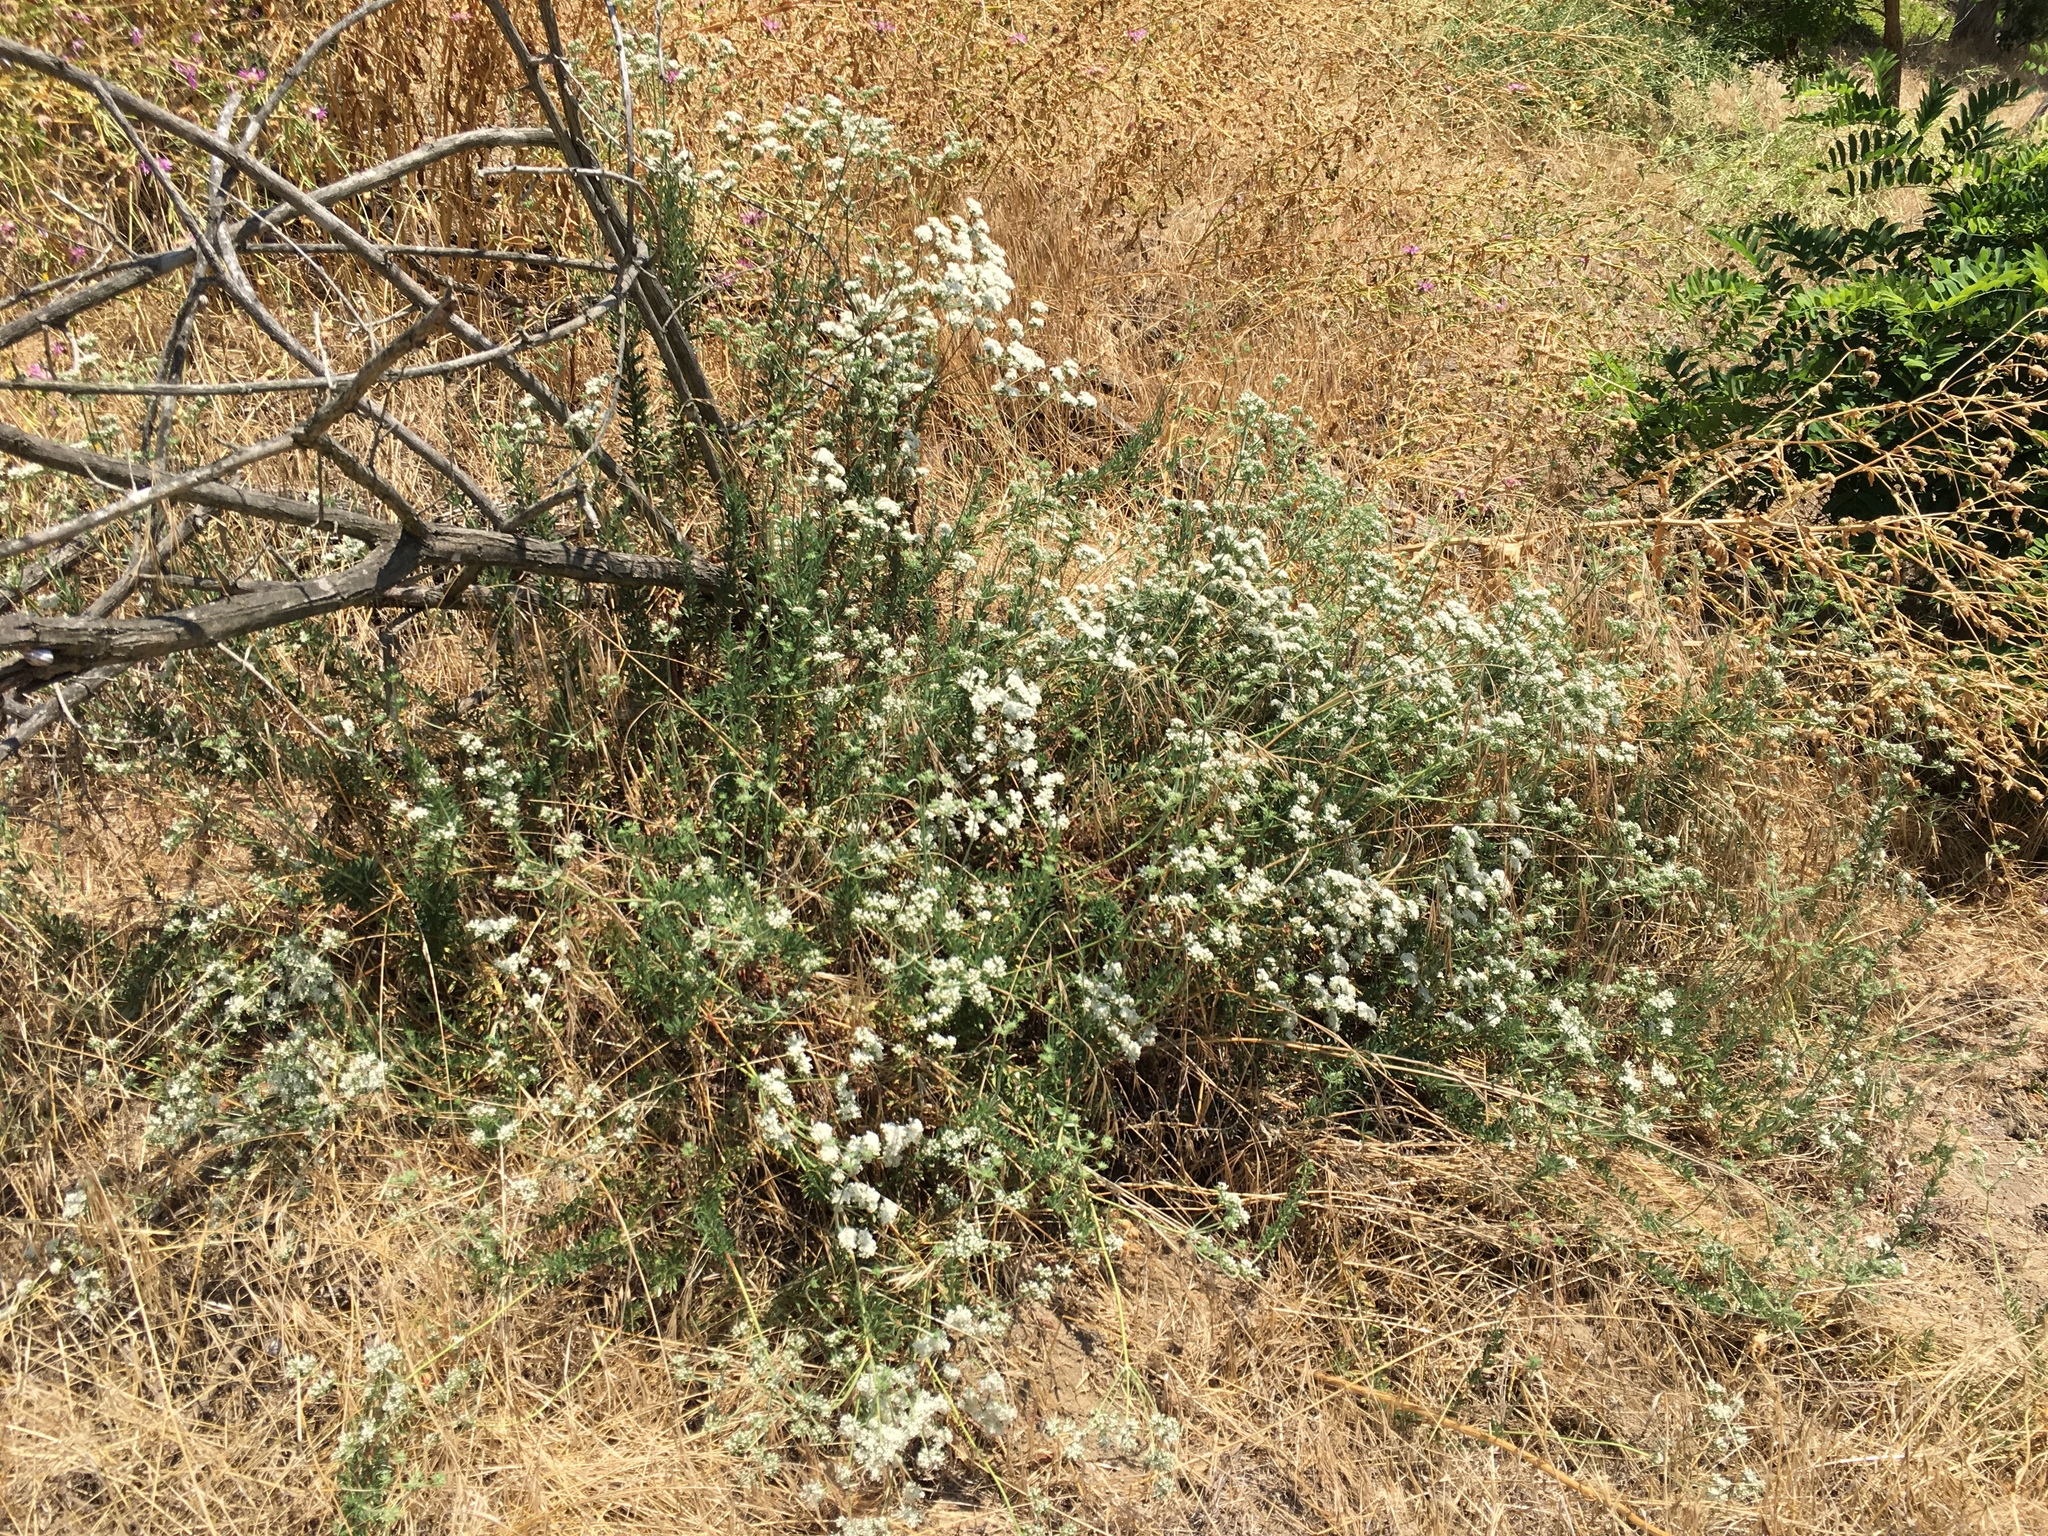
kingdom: Plantae
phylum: Tracheophyta
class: Magnoliopsida
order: Caryophyllales
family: Polygonaceae
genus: Eriogonum
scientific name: Eriogonum fasciculatum
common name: California wild buckwheat
